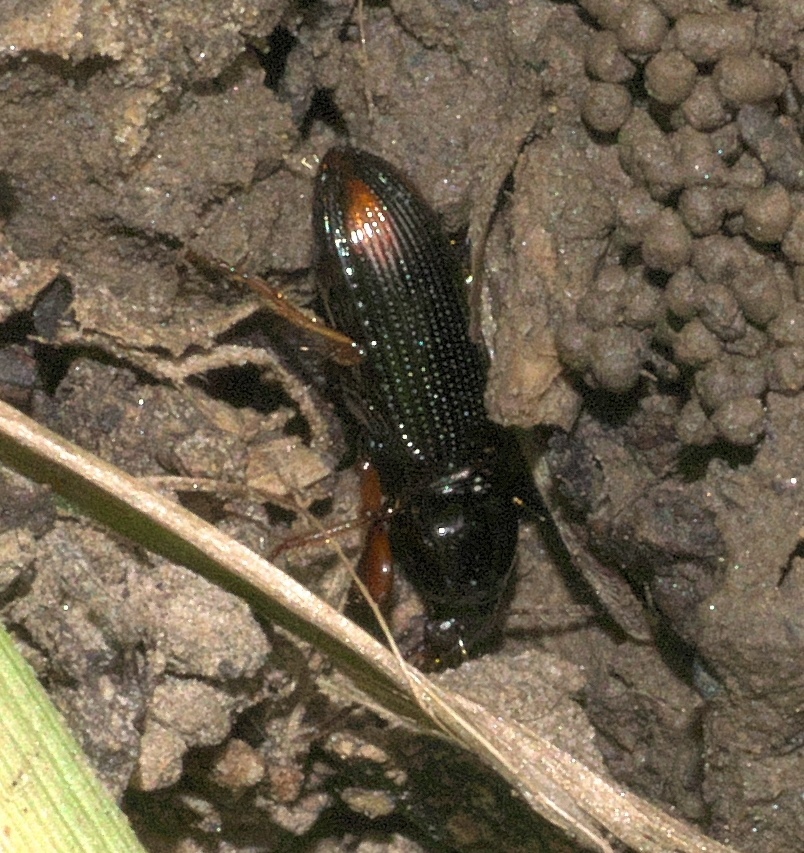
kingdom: Animalia
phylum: Arthropoda
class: Insecta
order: Coleoptera
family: Carabidae
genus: Aspidoglossa
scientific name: Aspidoglossa subangulata
